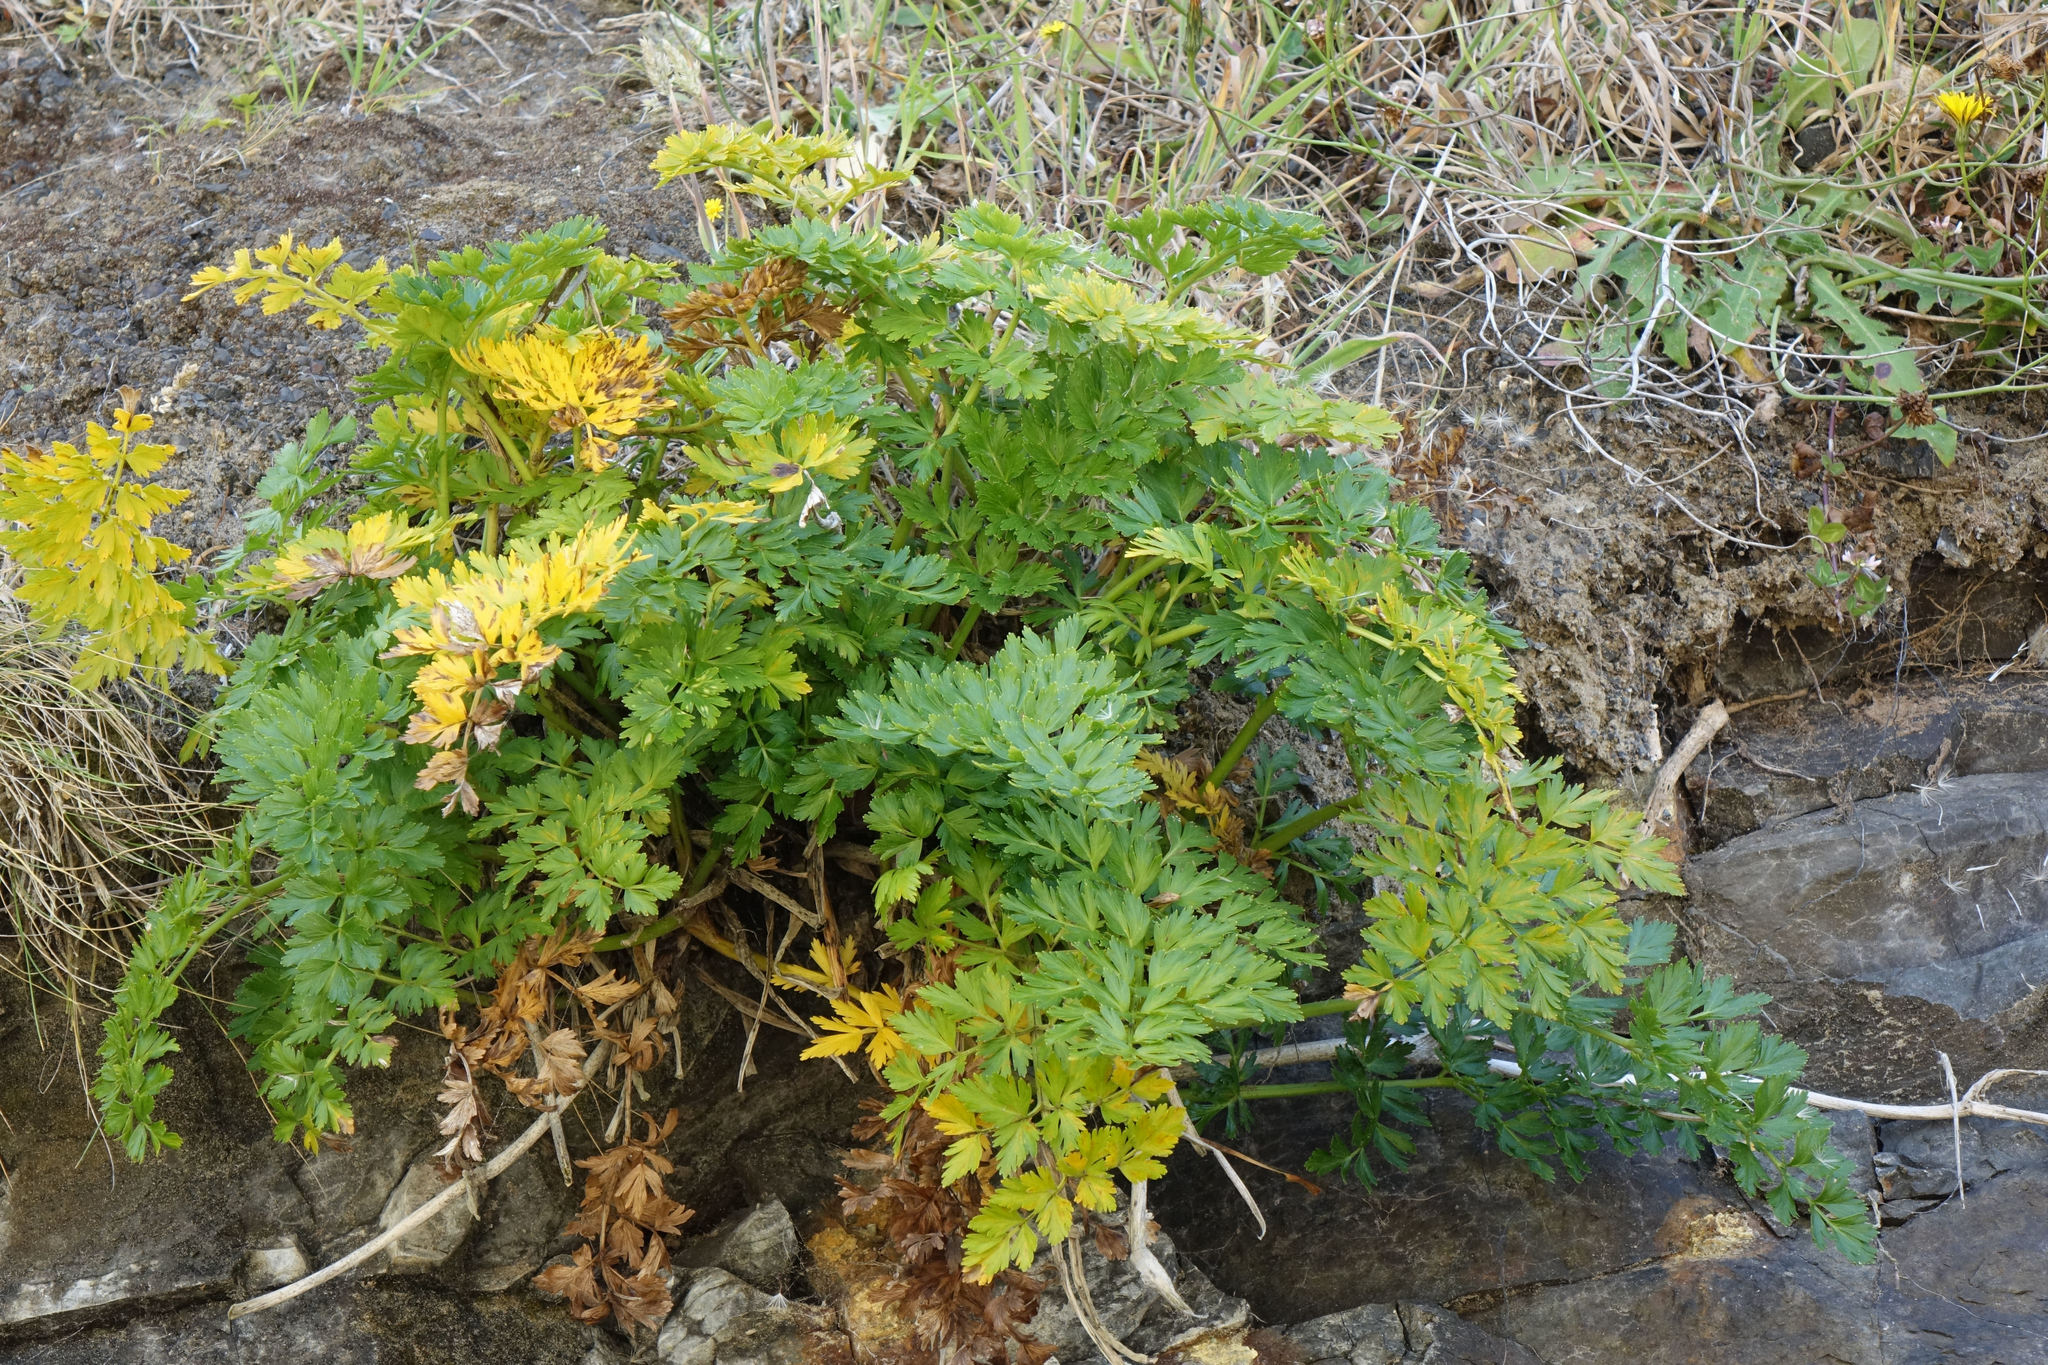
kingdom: Plantae
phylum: Tracheophyta
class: Magnoliopsida
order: Apiales
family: Apiaceae
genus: Anisotome
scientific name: Anisotome lyallii
